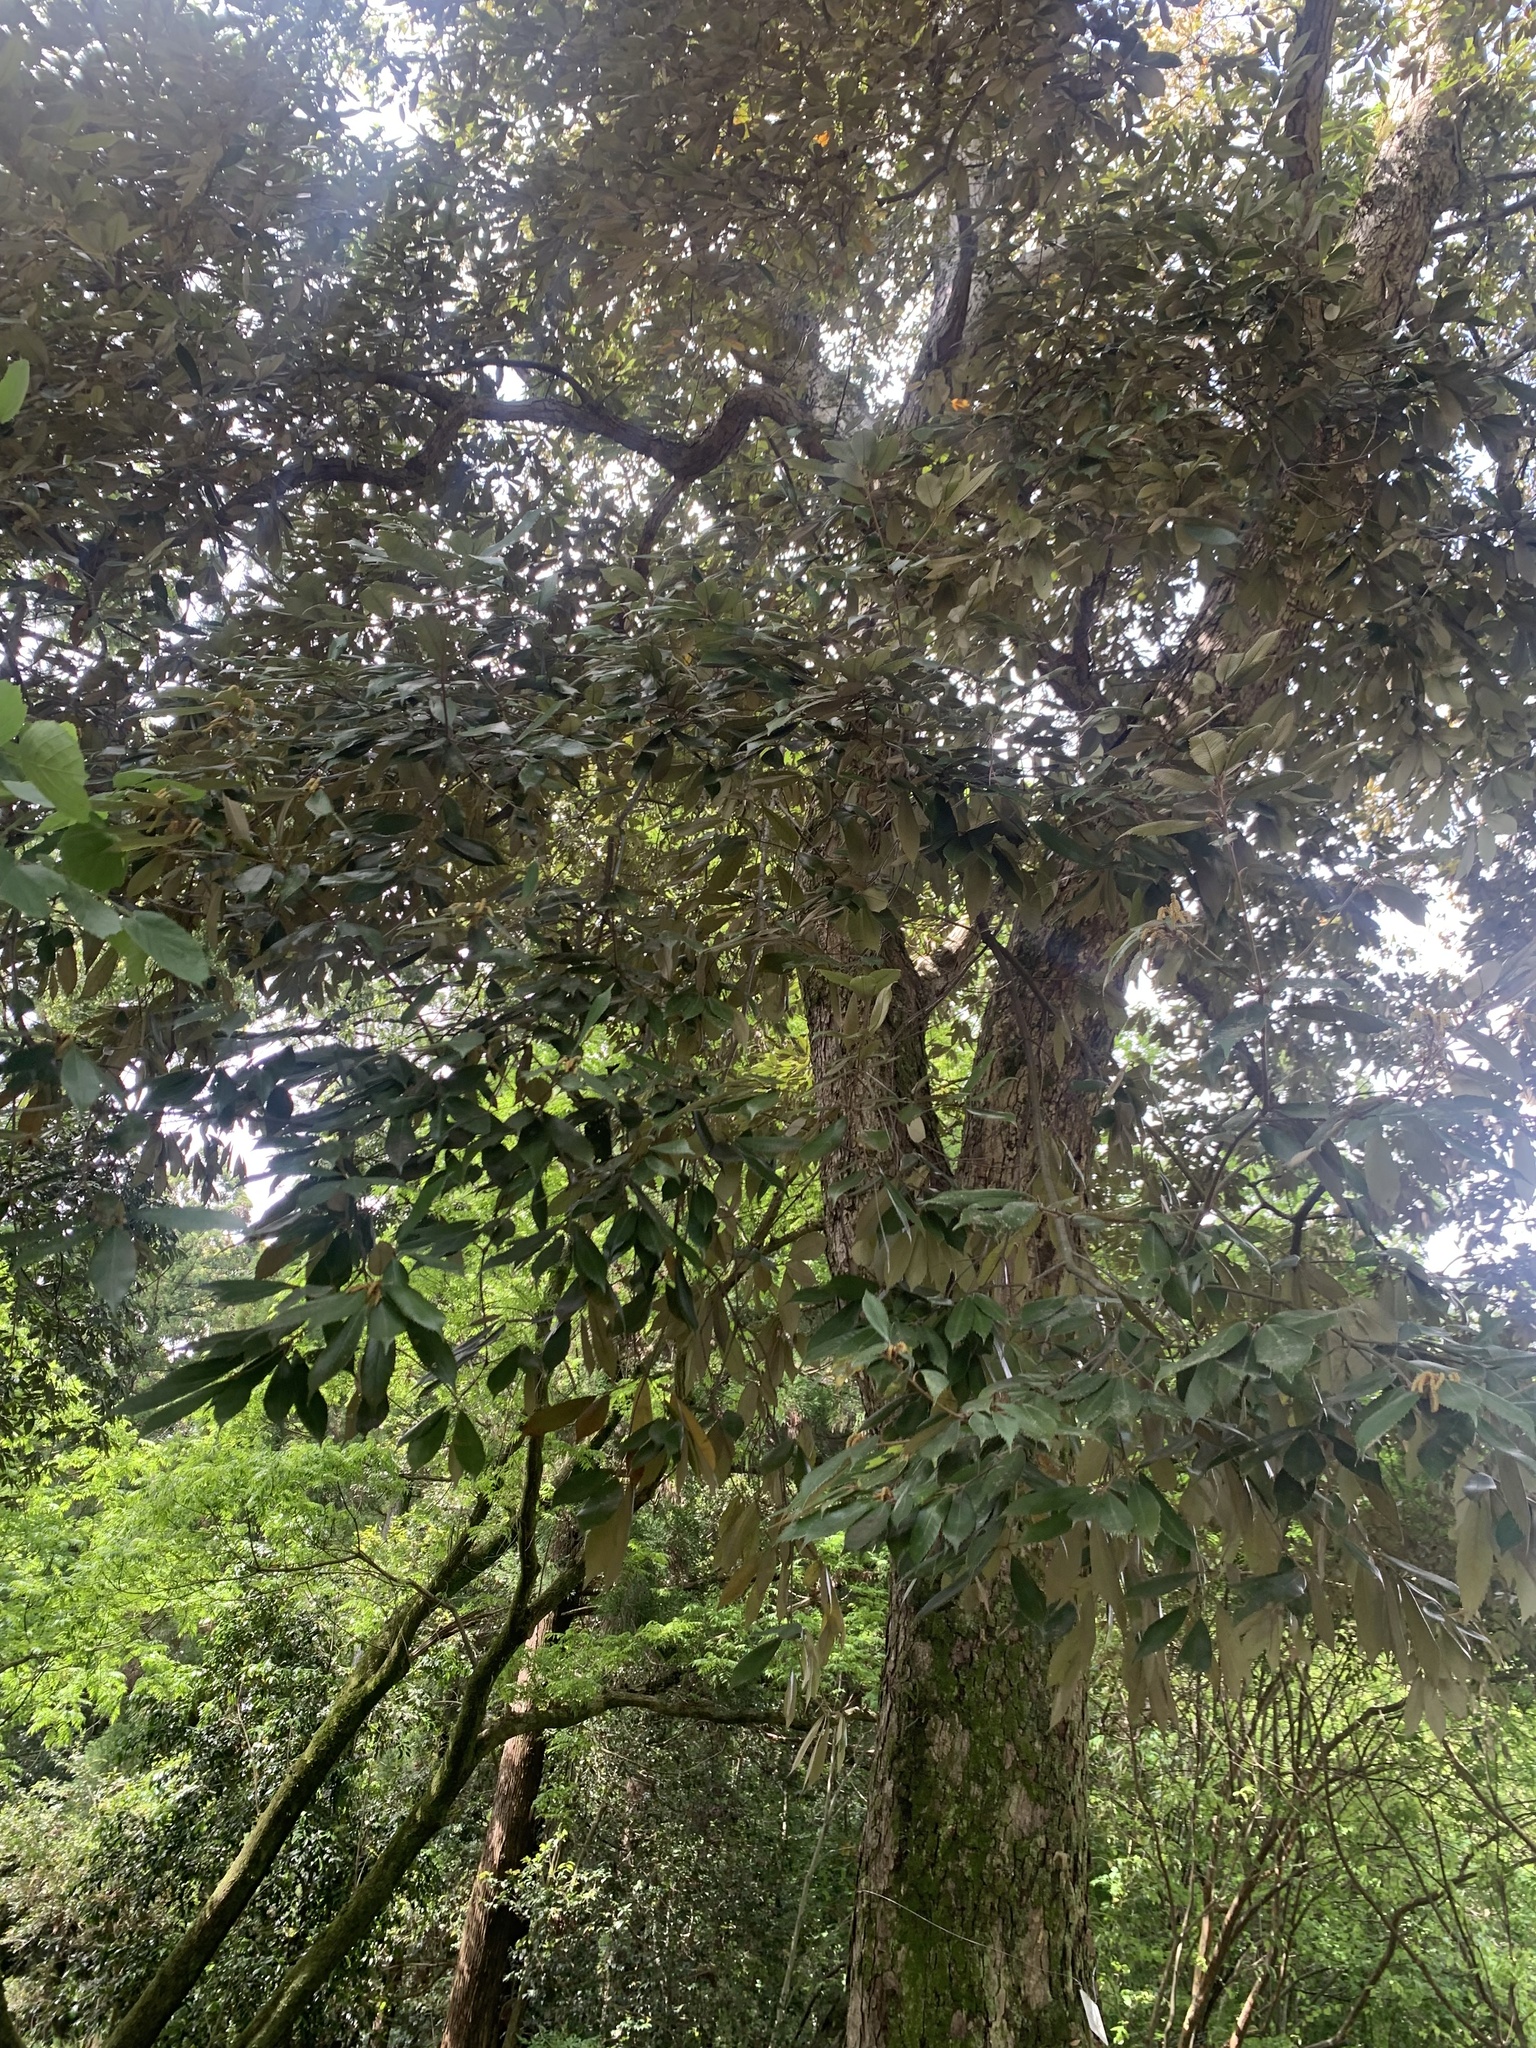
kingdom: Plantae
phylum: Tracheophyta
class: Magnoliopsida
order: Fagales
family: Fagaceae
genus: Quercus
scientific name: Quercus gilva
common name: Redbark oak
